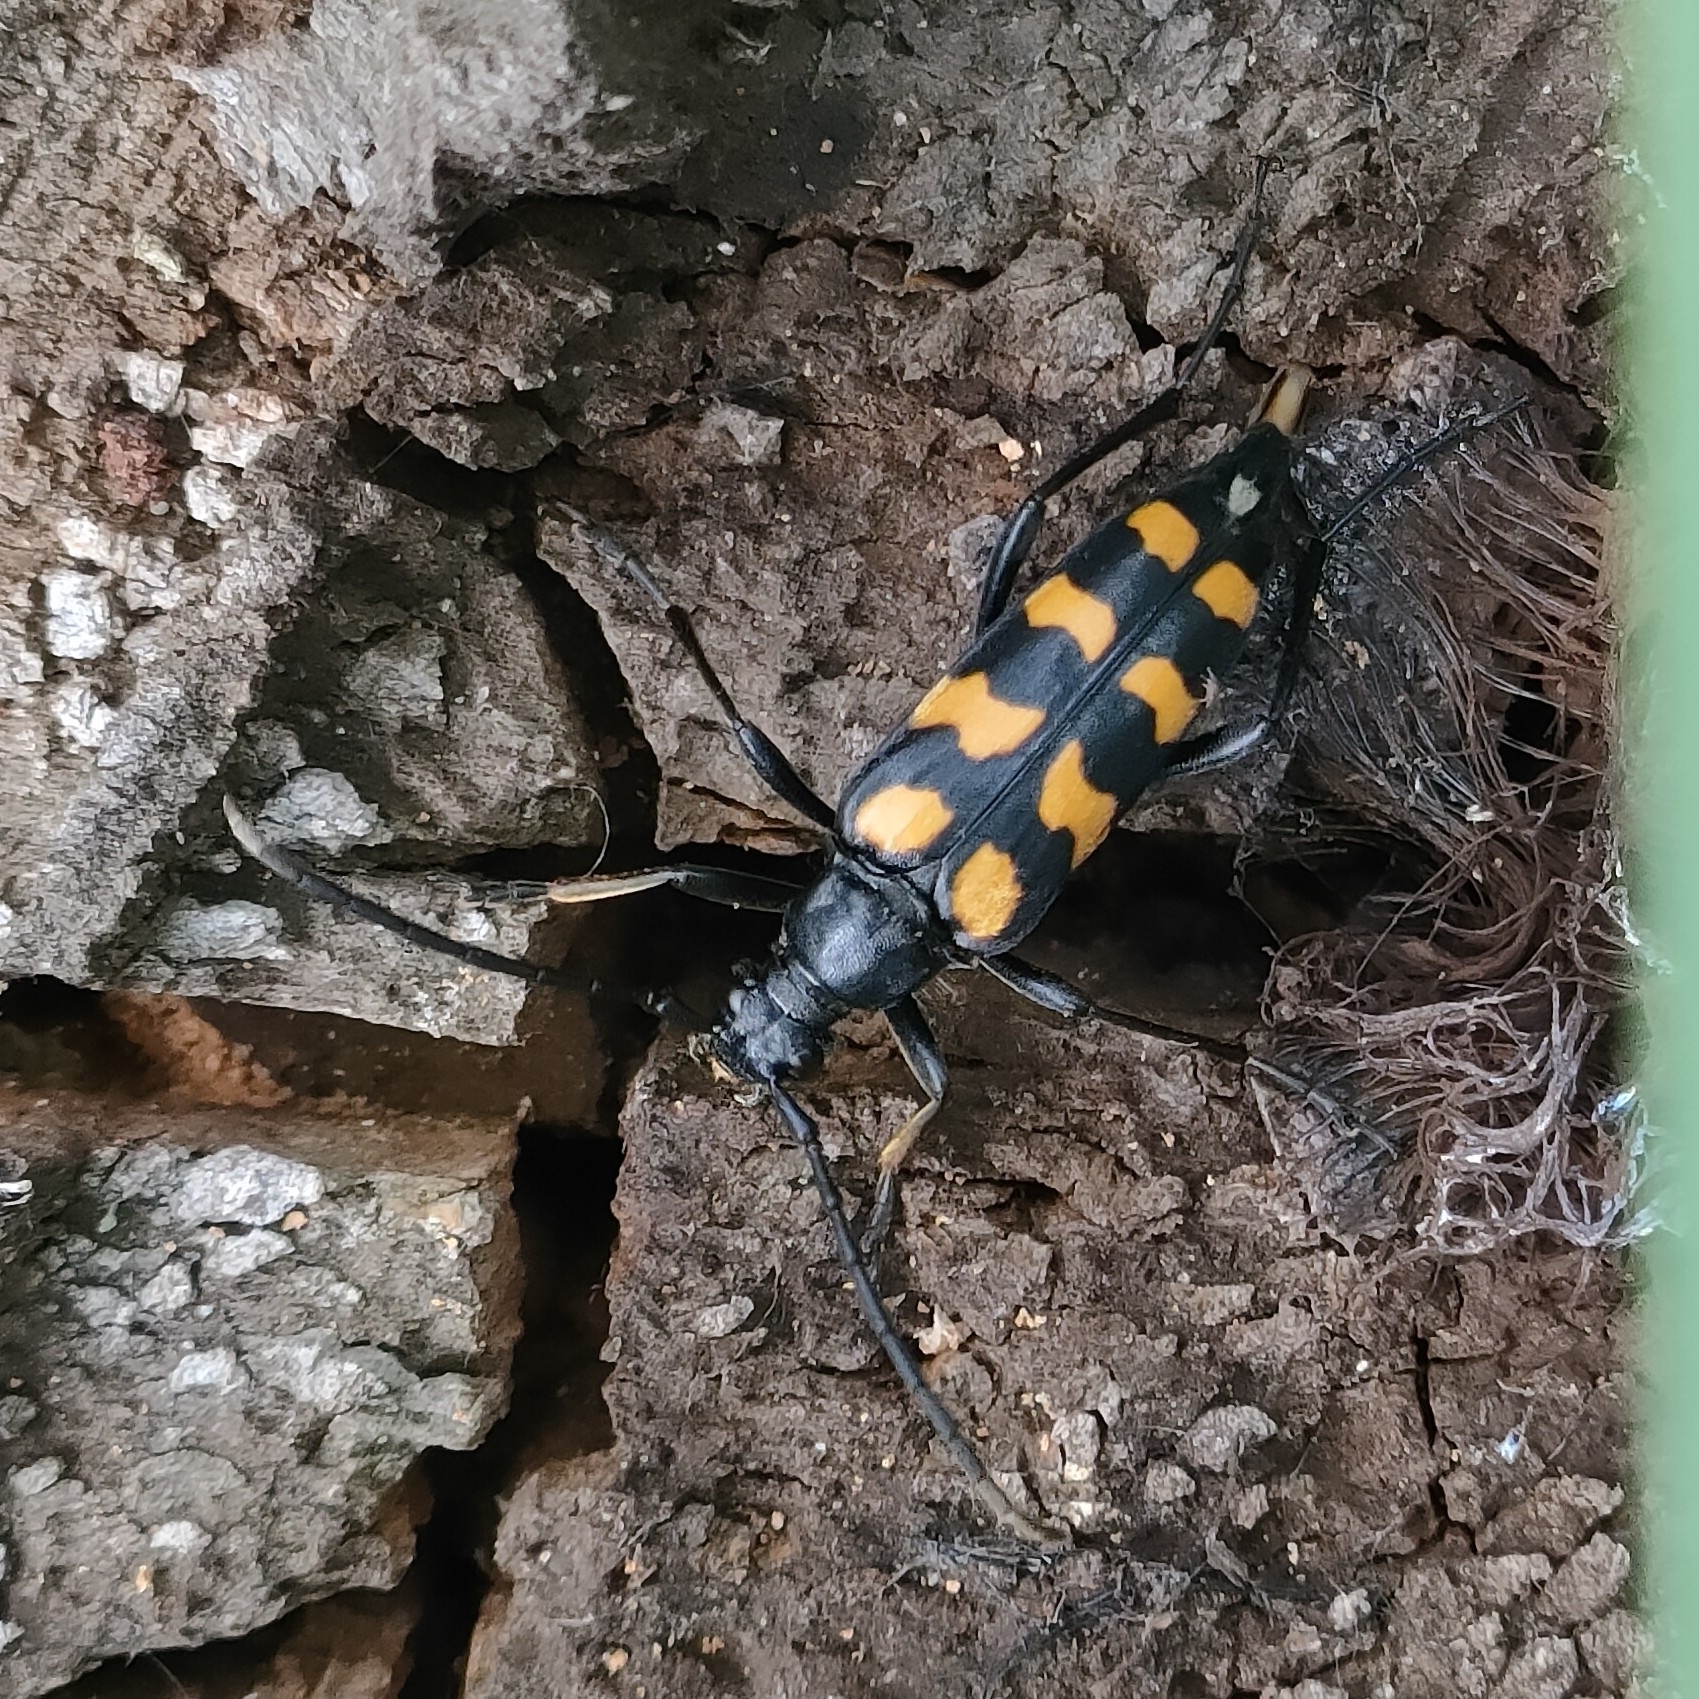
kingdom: Animalia
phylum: Arthropoda
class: Insecta
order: Coleoptera
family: Cerambycidae
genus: Leptura
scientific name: Leptura quadrifasciata
